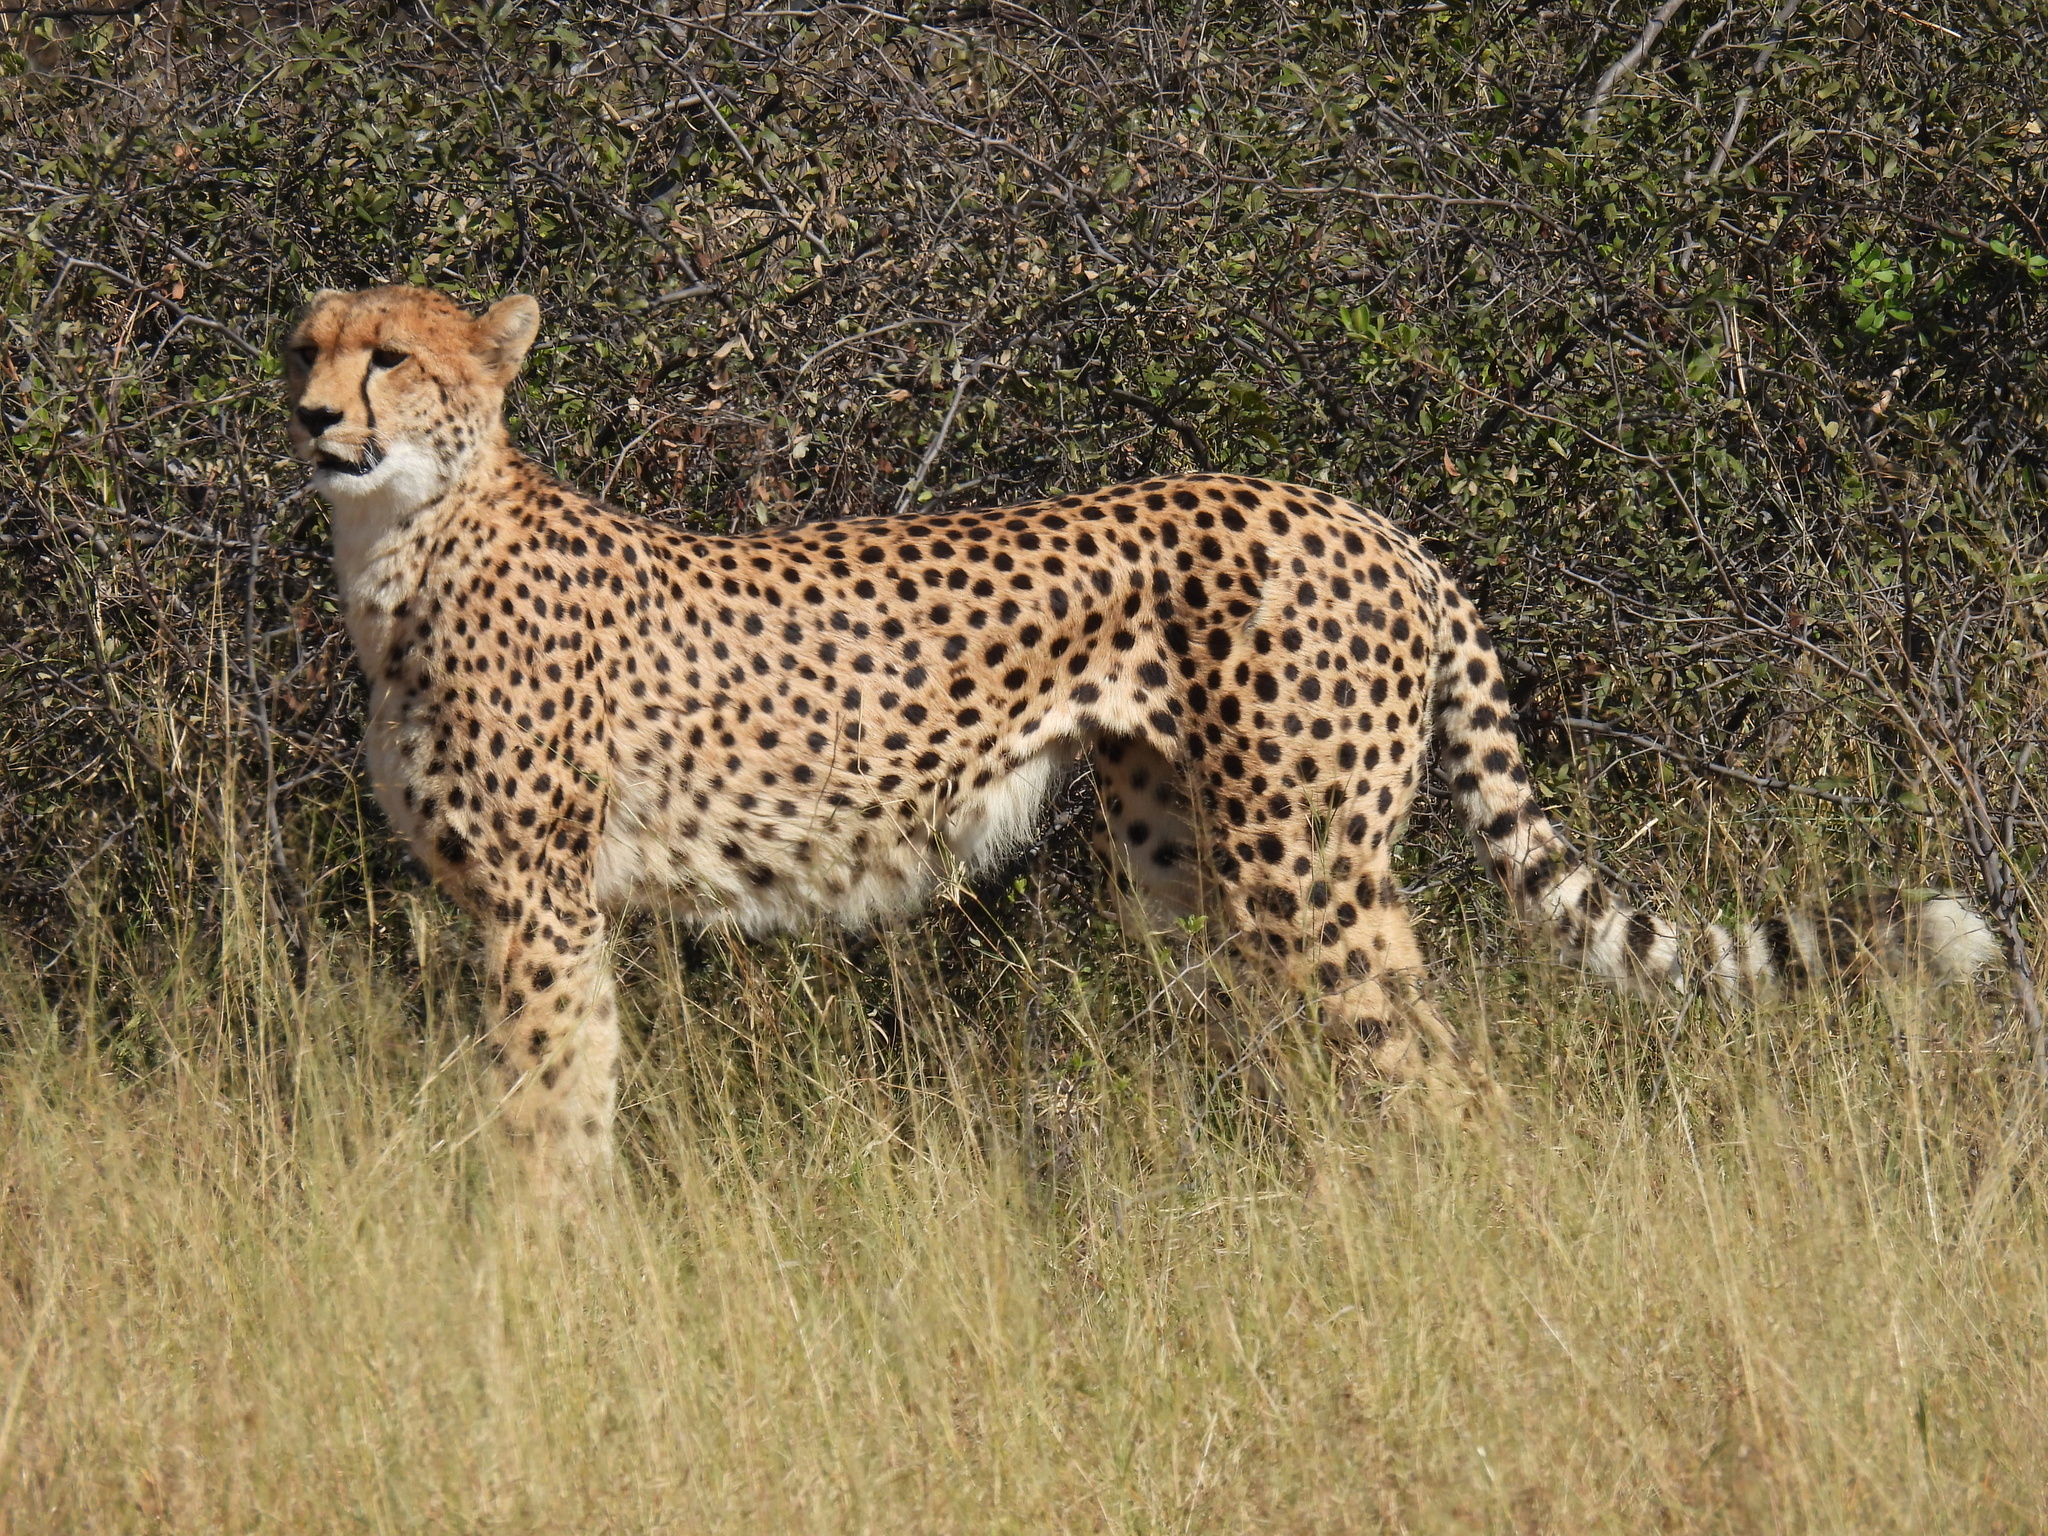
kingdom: Animalia
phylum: Chordata
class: Mammalia
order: Carnivora
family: Felidae
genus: Acinonyx
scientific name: Acinonyx jubatus
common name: Cheetah
